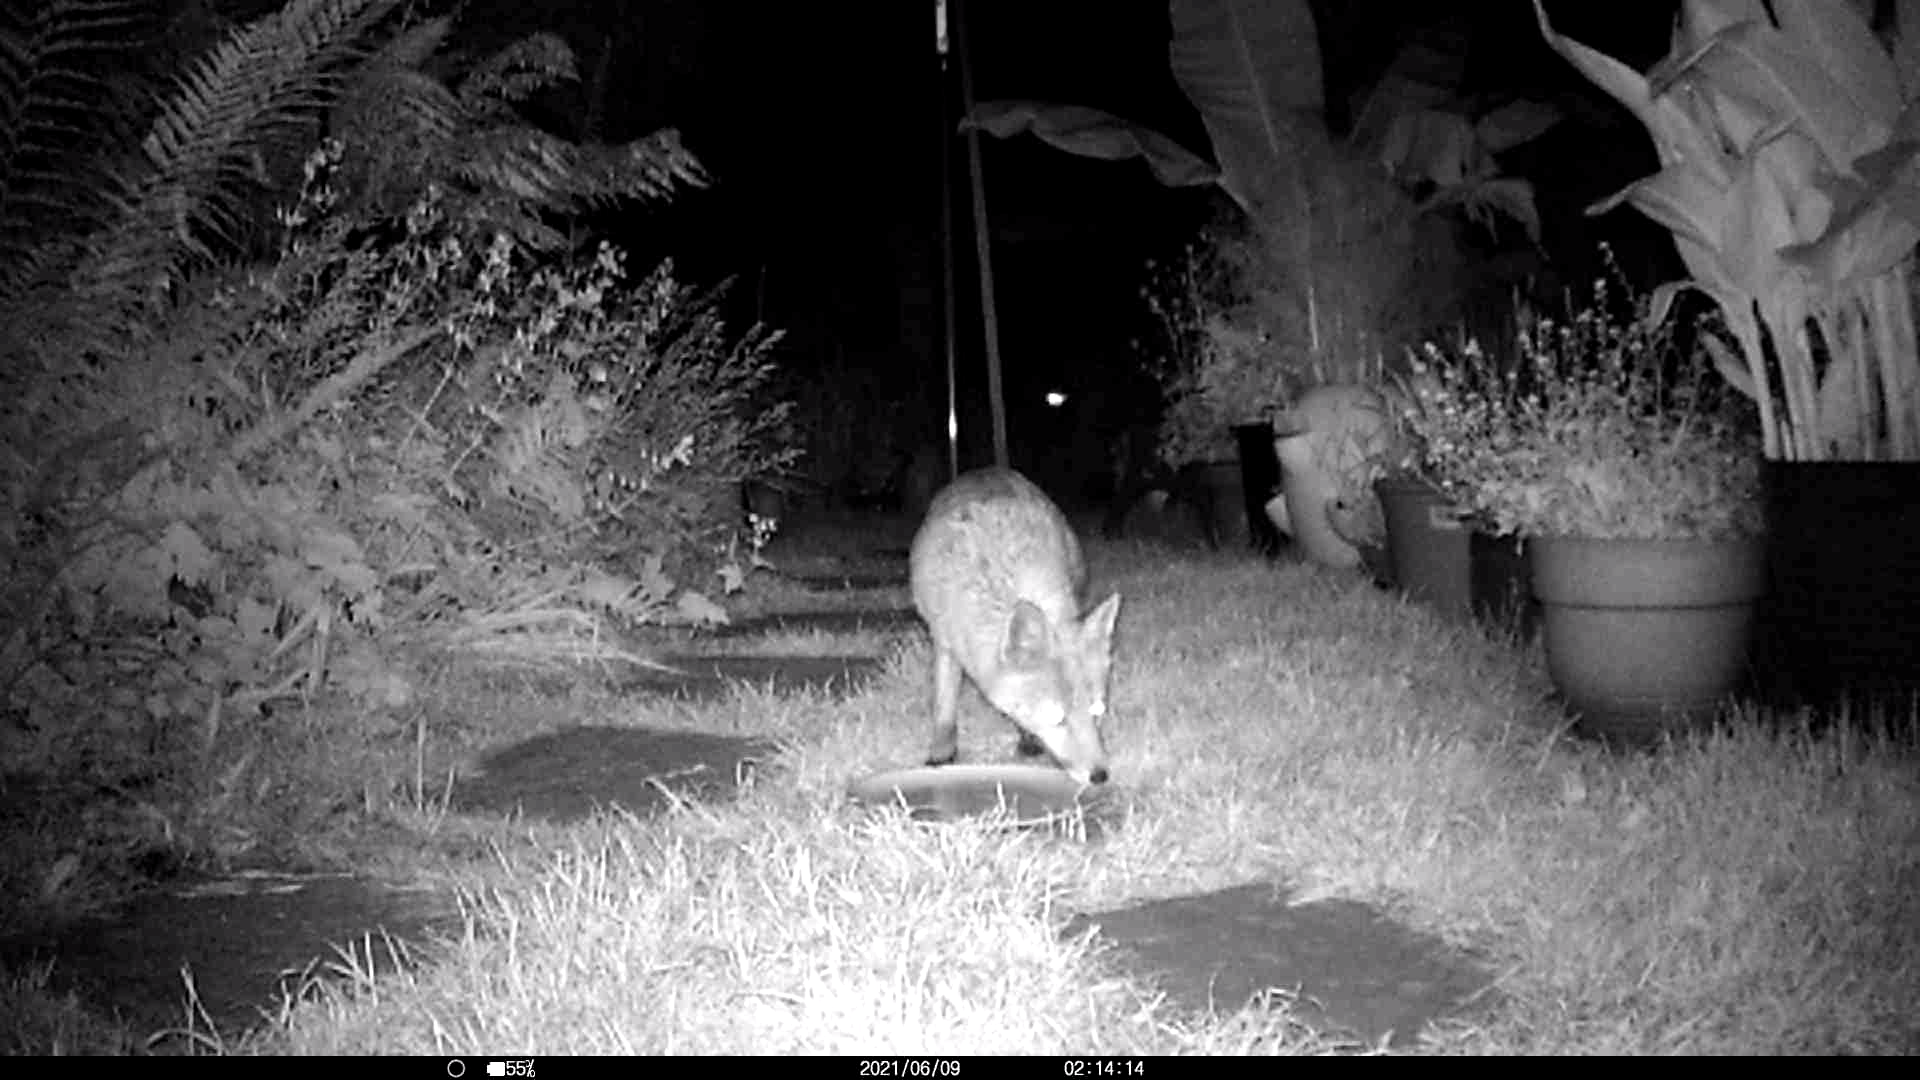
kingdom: Animalia
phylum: Chordata
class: Mammalia
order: Carnivora
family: Canidae
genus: Vulpes
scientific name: Vulpes vulpes
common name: Red fox
